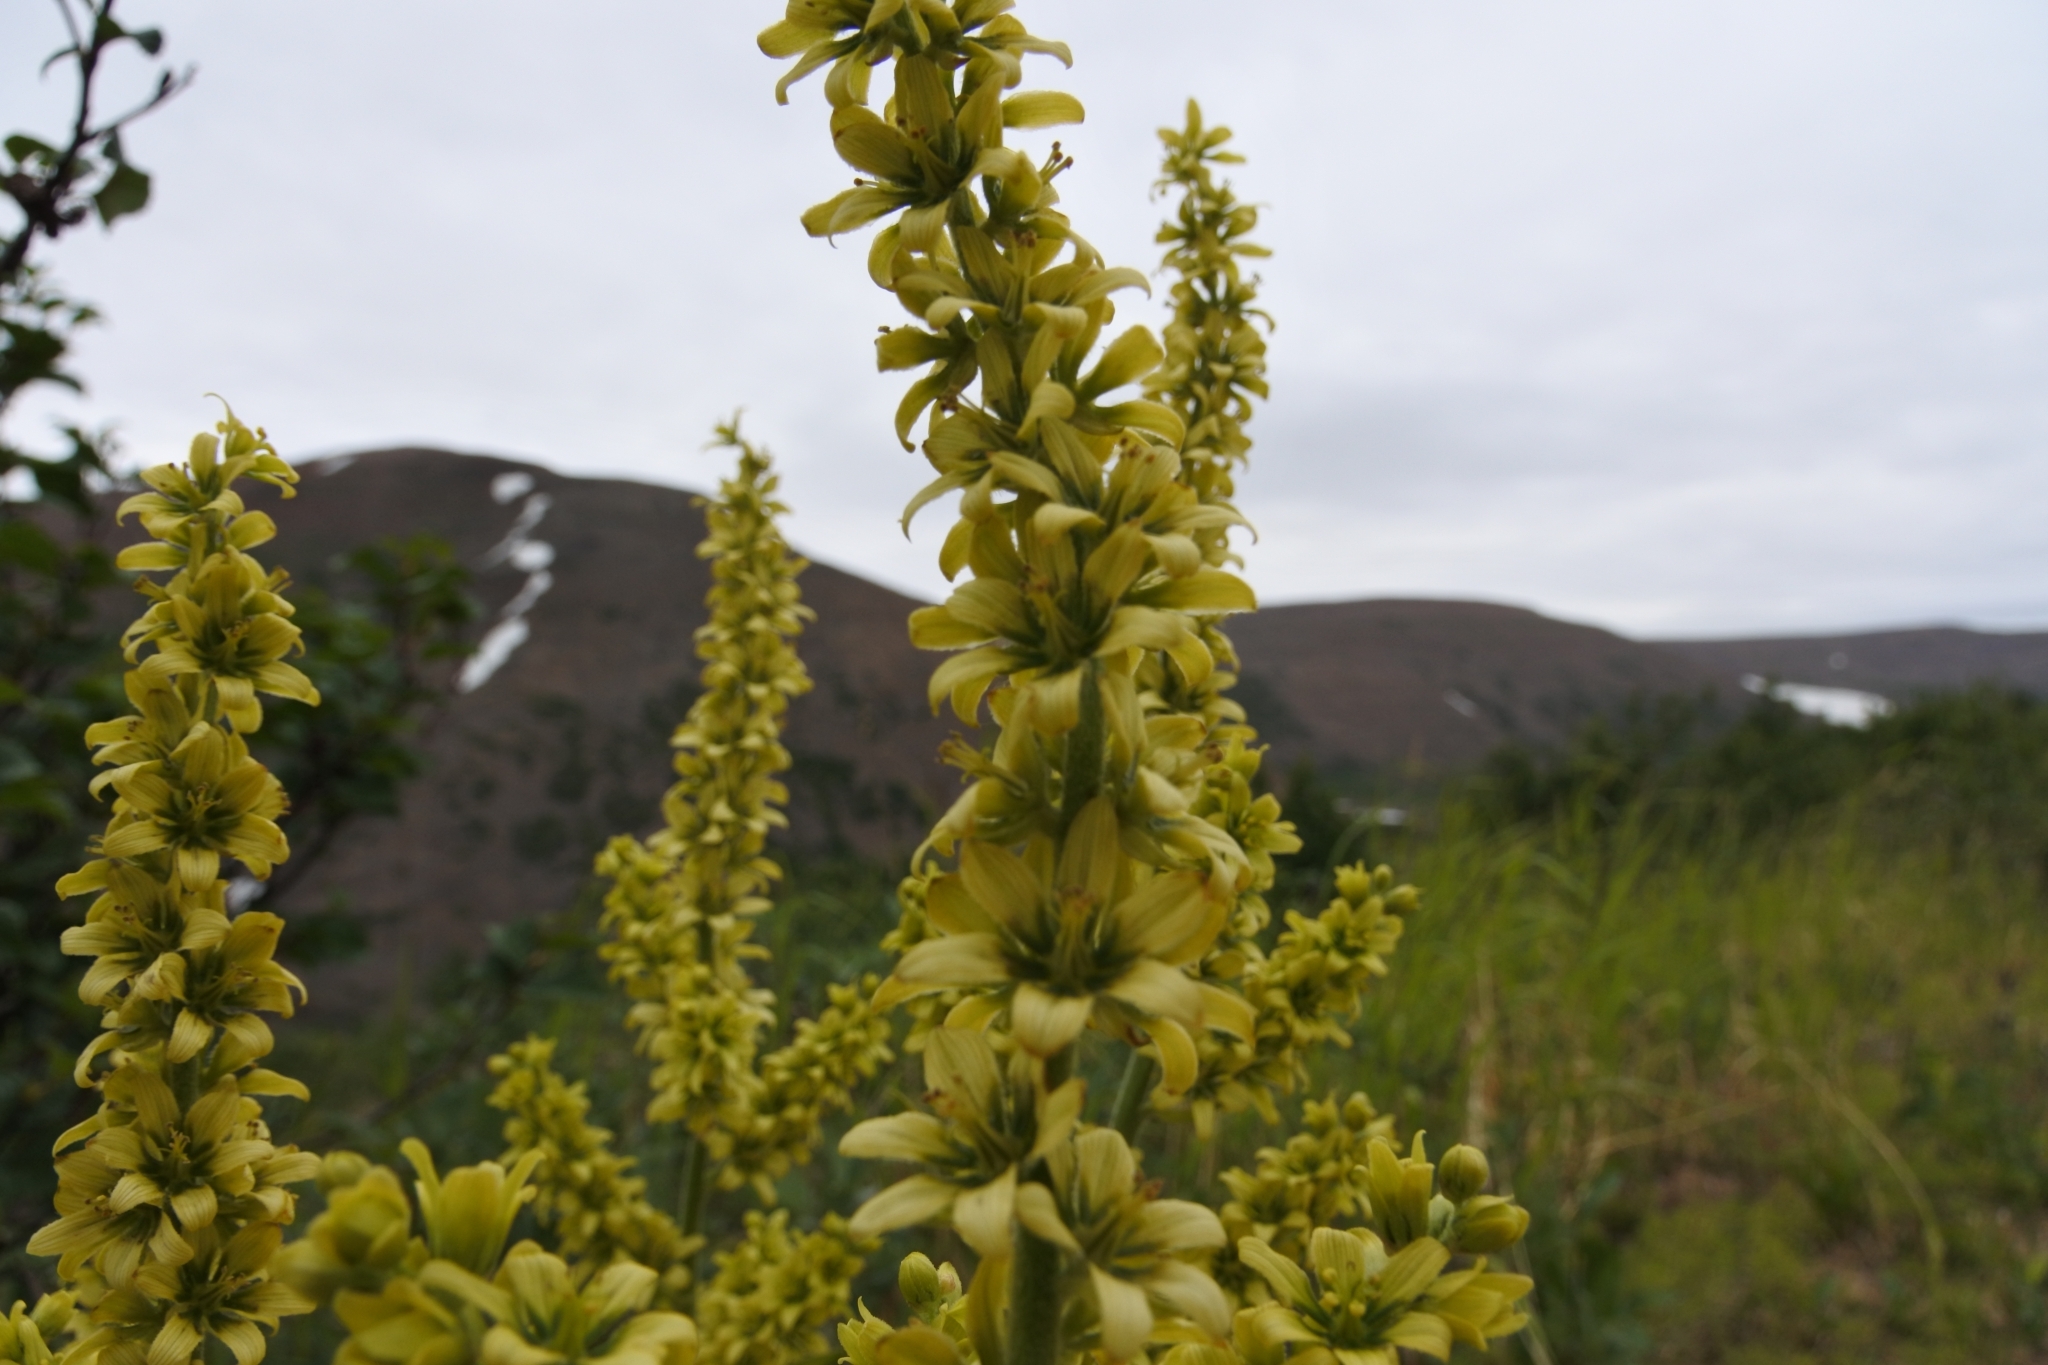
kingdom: Plantae
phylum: Tracheophyta
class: Liliopsida
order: Liliales
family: Melanthiaceae
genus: Veratrum
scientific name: Veratrum lobelianum
